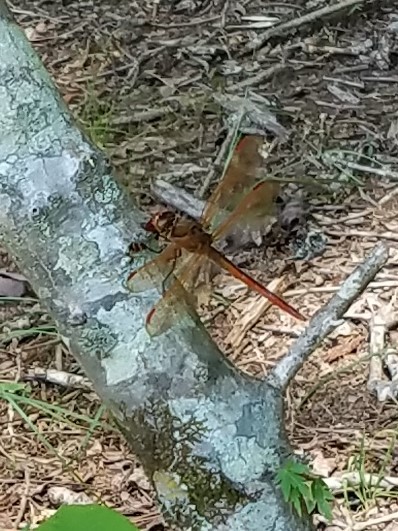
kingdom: Animalia
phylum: Arthropoda
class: Insecta
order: Odonata
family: Libellulidae
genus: Libellula
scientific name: Libellula auripennis
